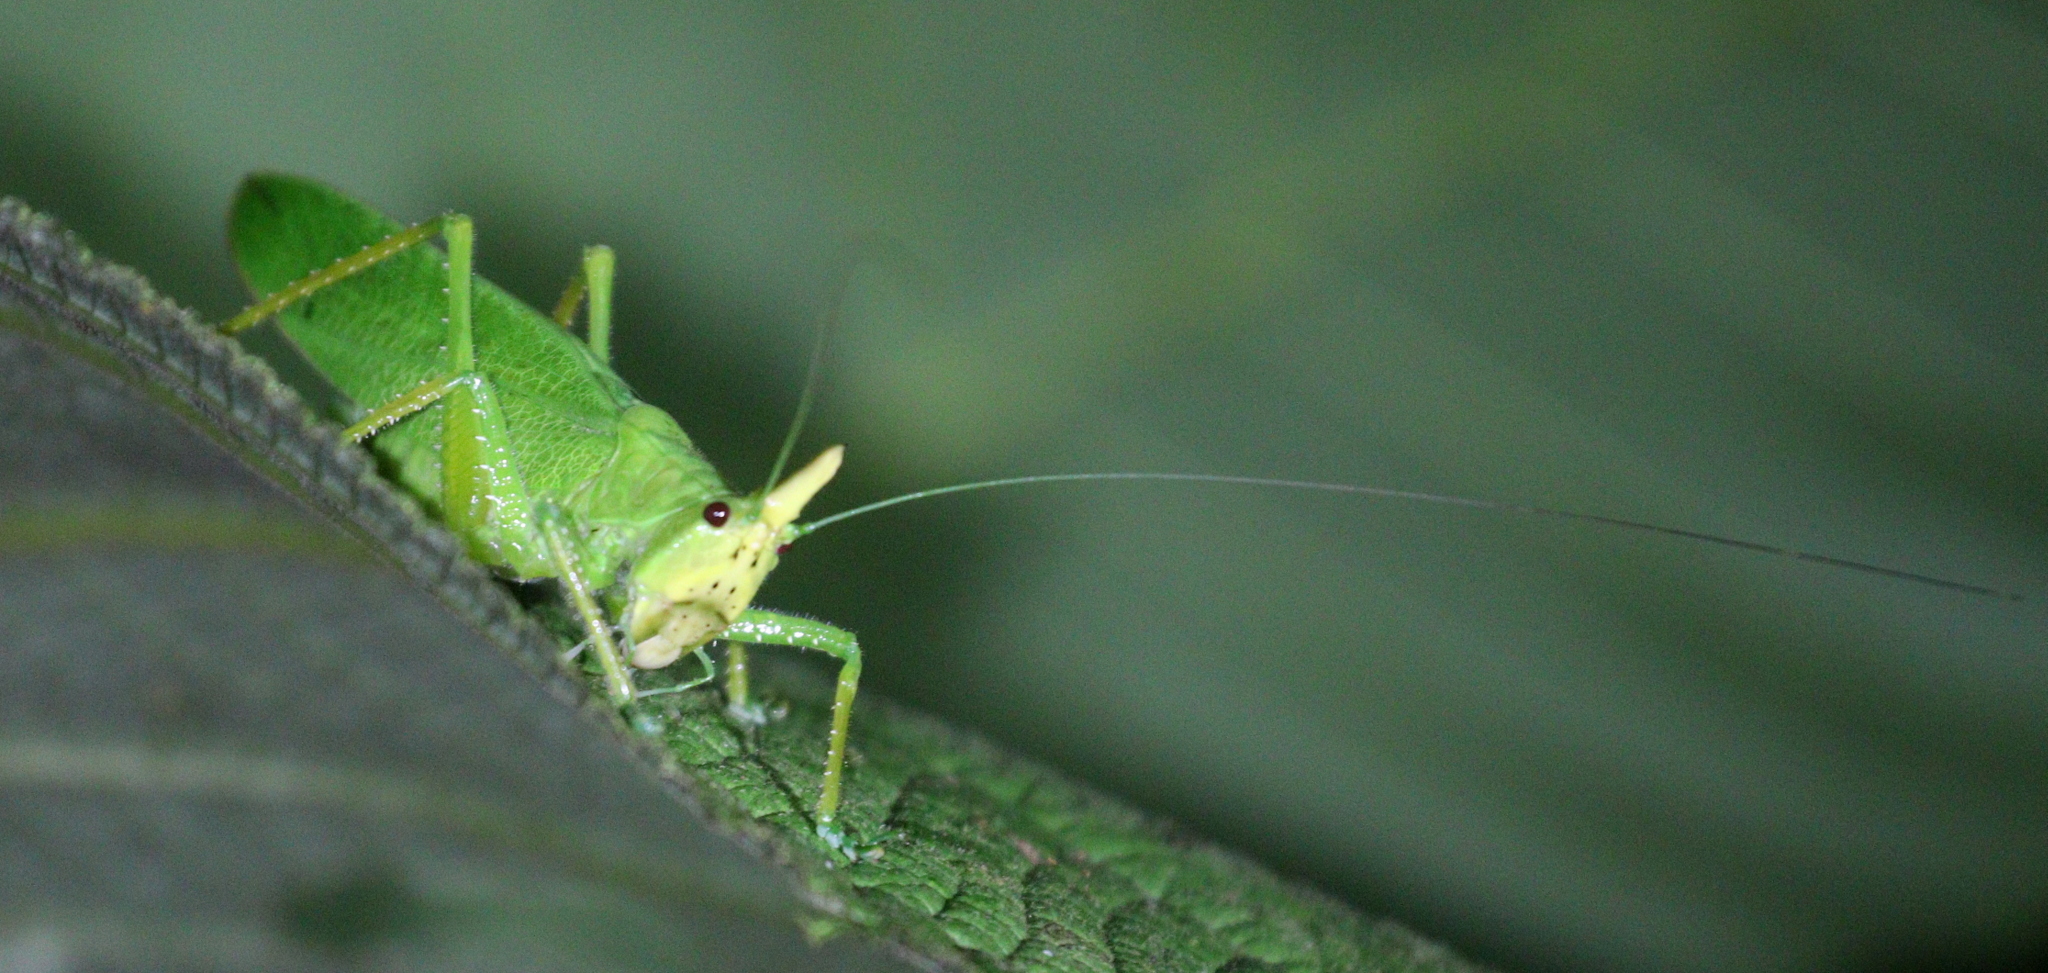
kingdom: Animalia
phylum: Arthropoda
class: Insecta
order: Orthoptera
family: Tettigoniidae
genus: Copiphora
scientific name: Copiphora cultricornis
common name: Yellow-faced spear bearer
